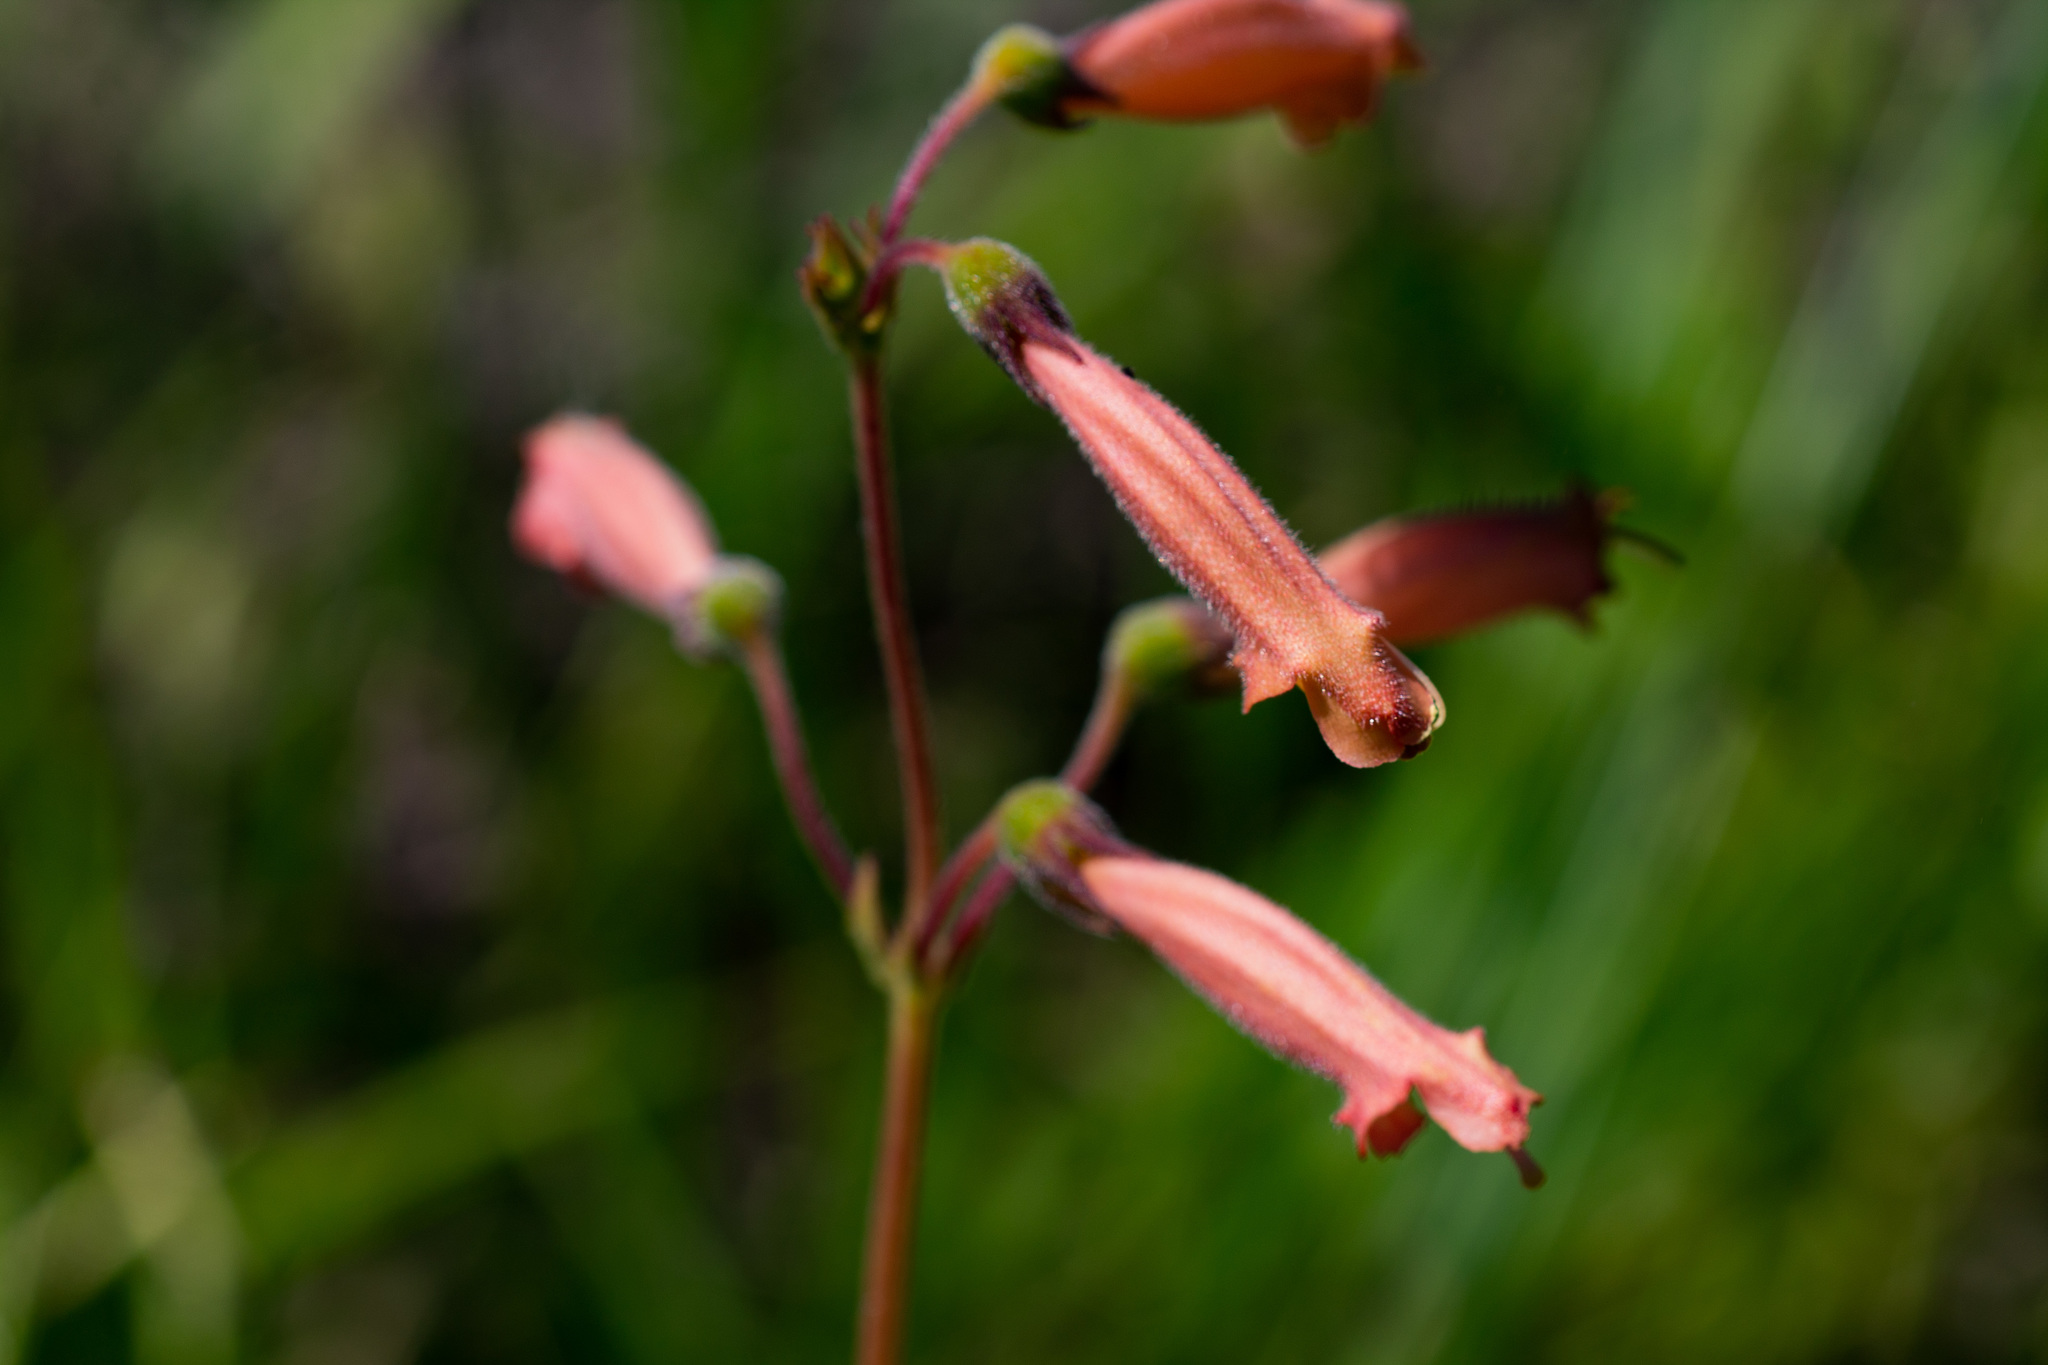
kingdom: Plantae
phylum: Tracheophyta
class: Magnoliopsida
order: Lamiales
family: Gesneriaceae
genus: Sinningia
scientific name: Sinningia sceptrum
